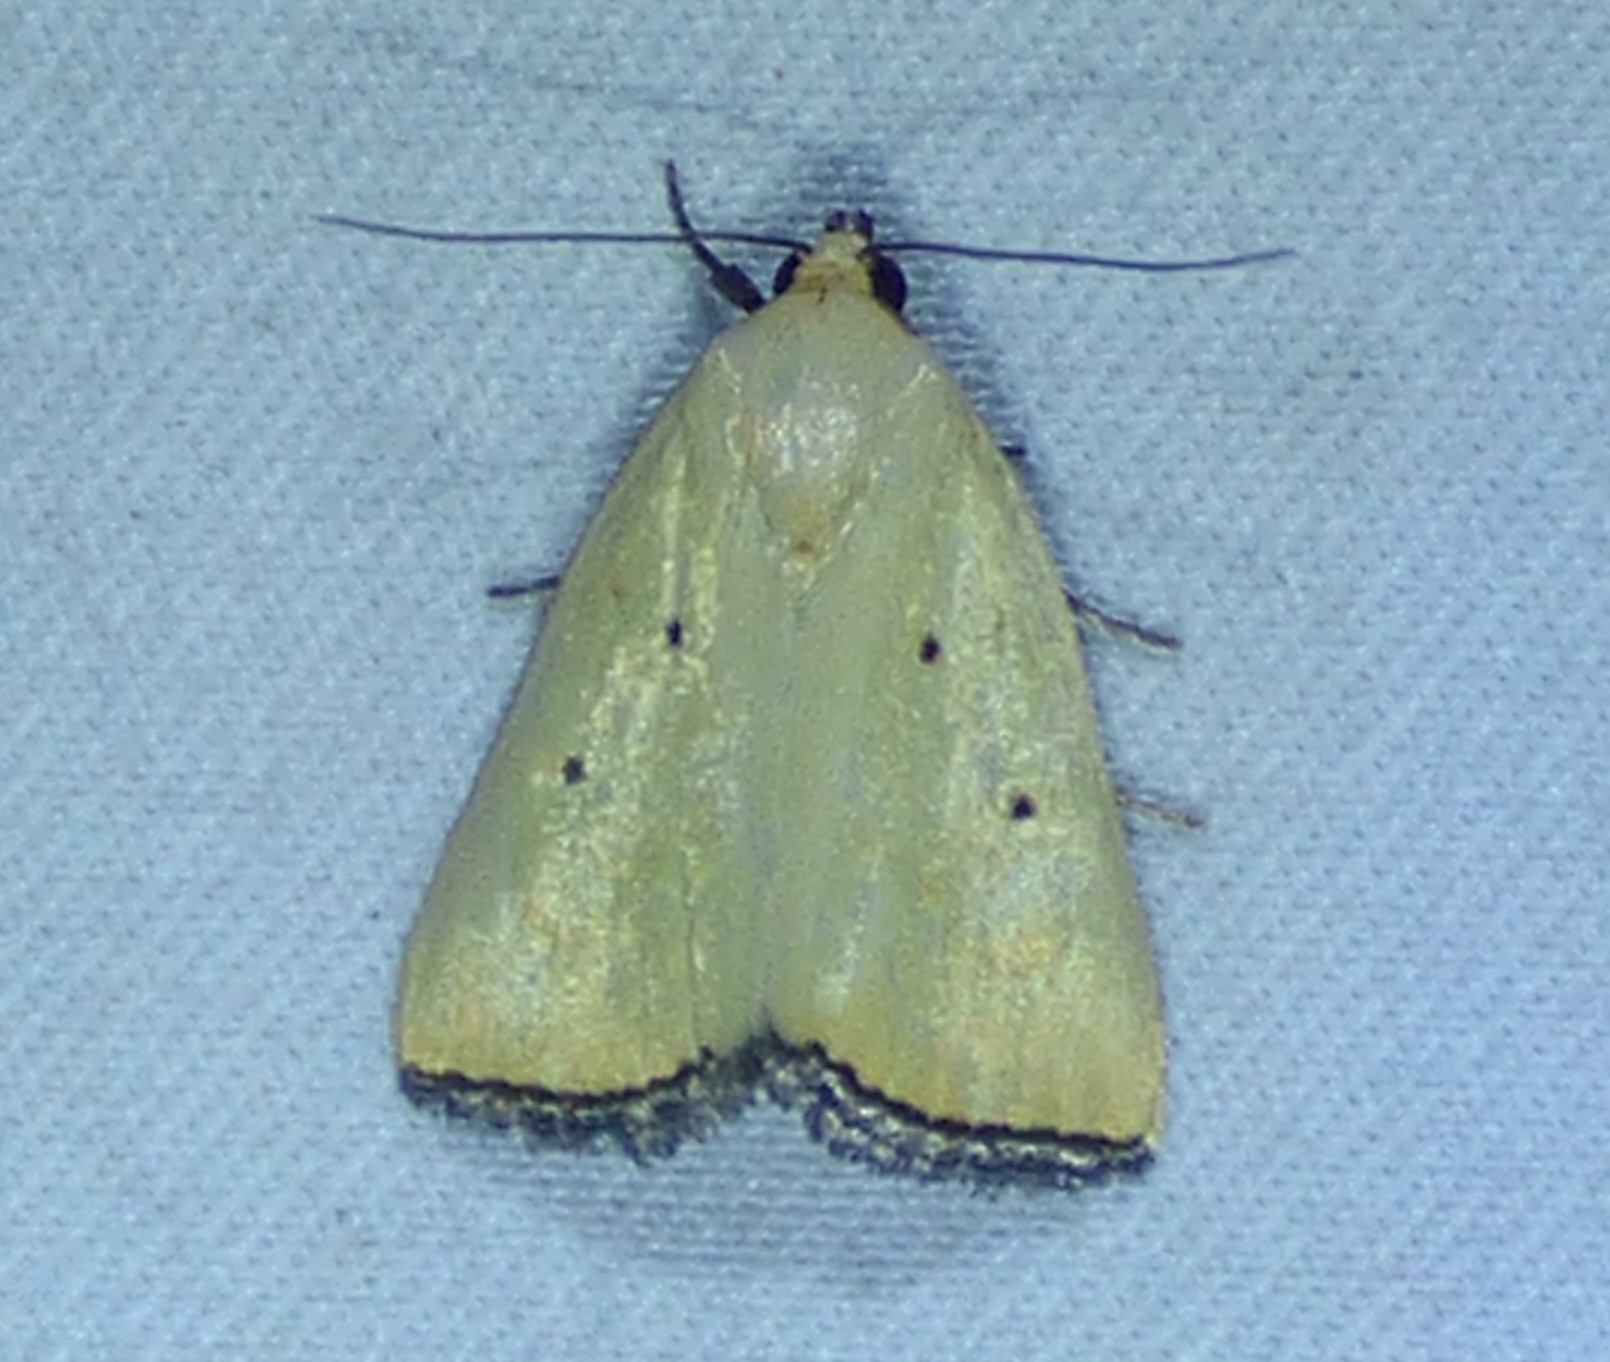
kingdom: Animalia
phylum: Arthropoda
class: Insecta
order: Lepidoptera
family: Noctuidae
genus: Marimatha
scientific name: Marimatha nigrofimbria
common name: Black-bordered lemon moth
